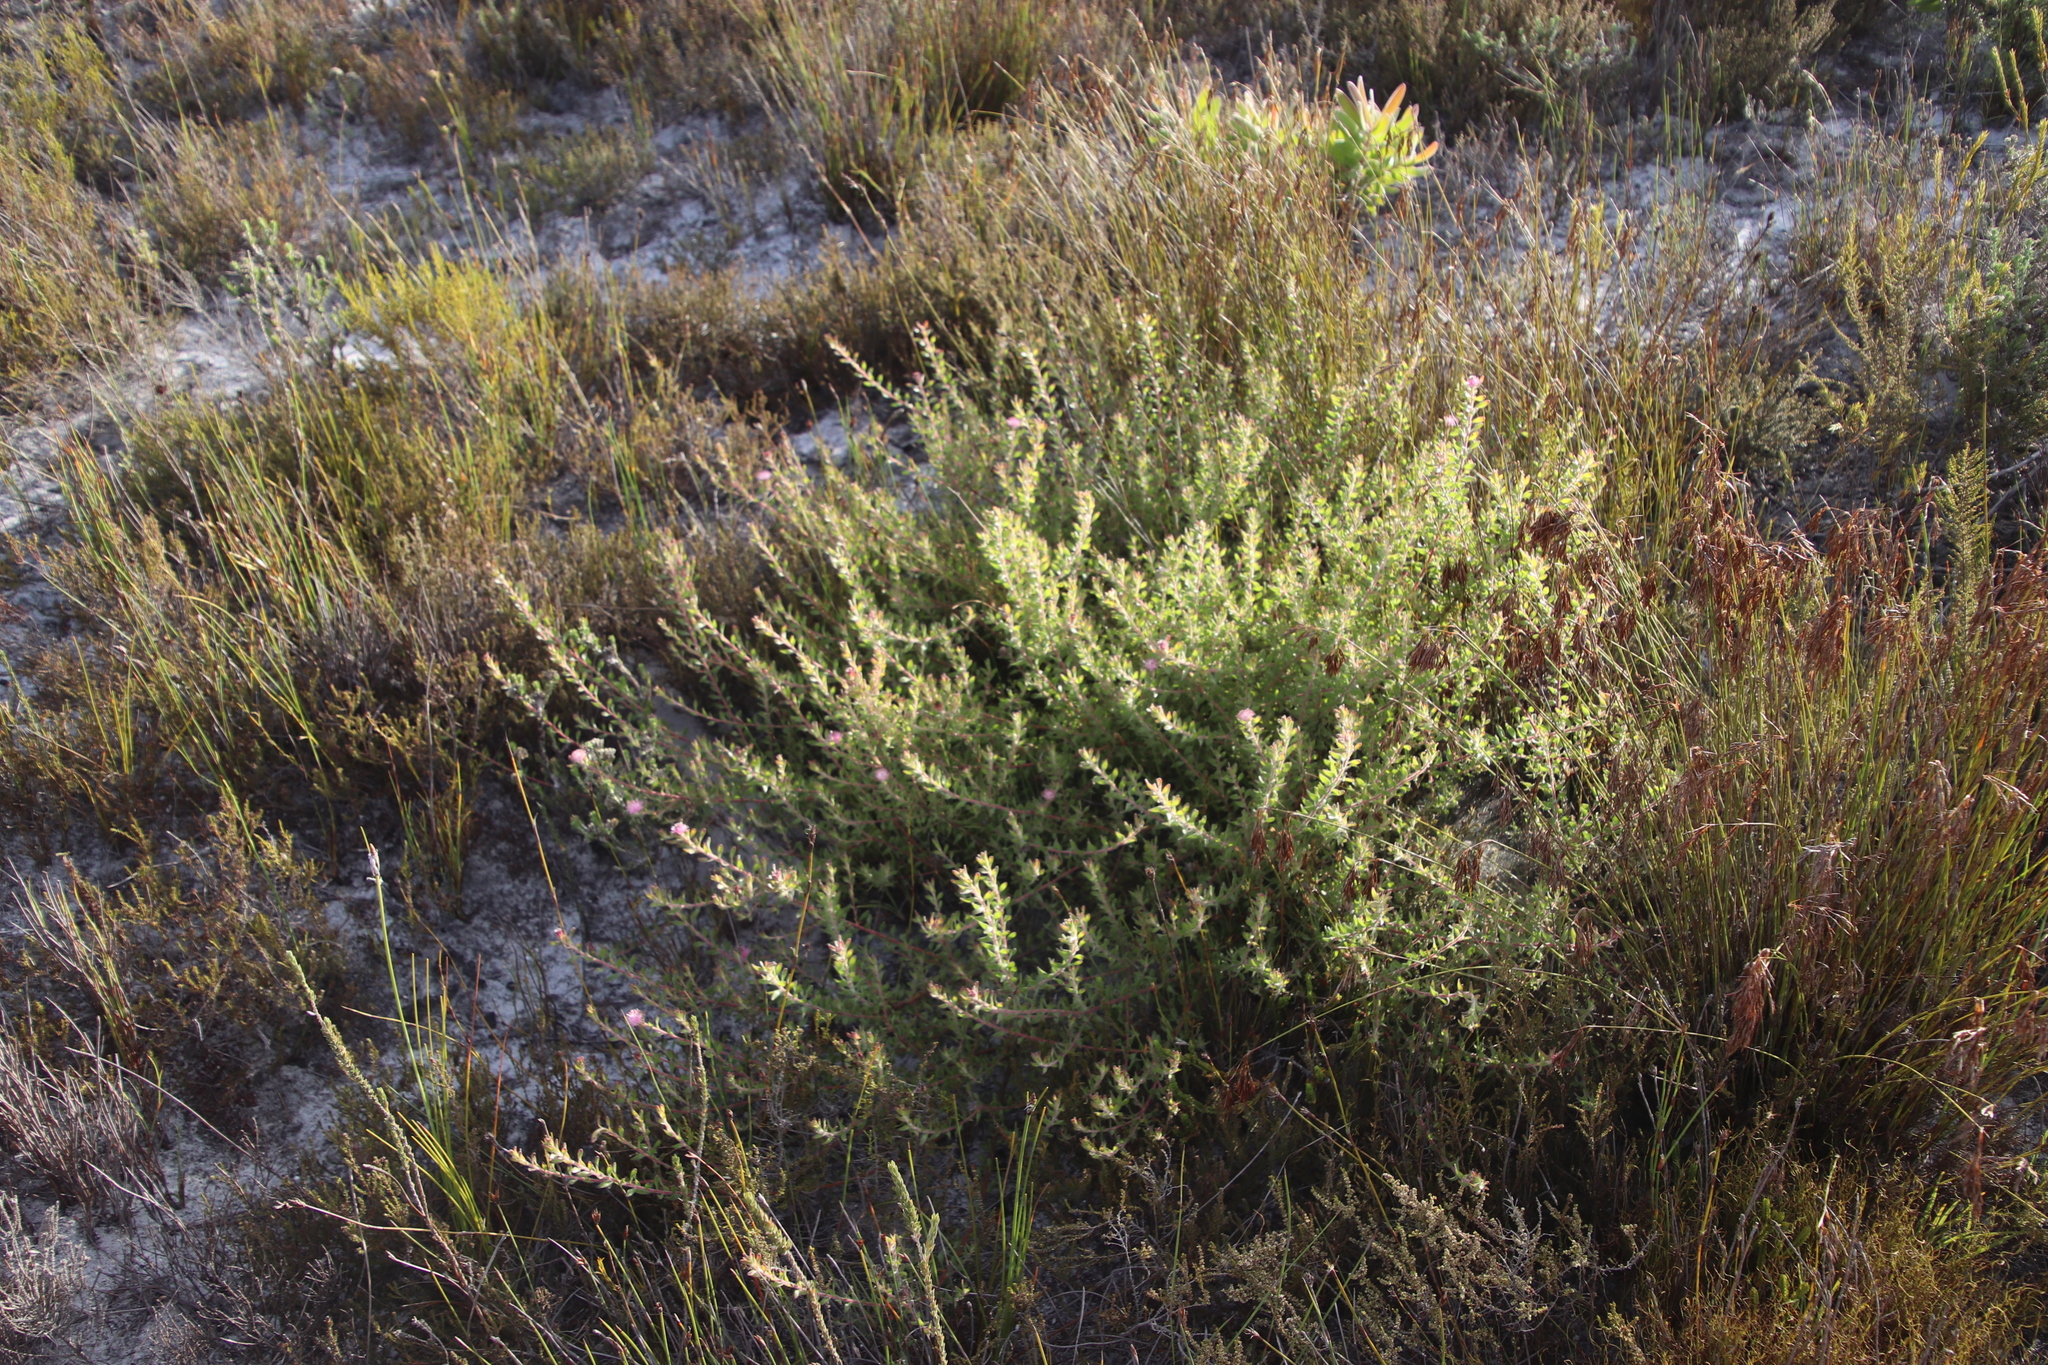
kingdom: Plantae
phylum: Tracheophyta
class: Magnoliopsida
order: Proteales
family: Proteaceae
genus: Diastella
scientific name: Diastella divaricata
